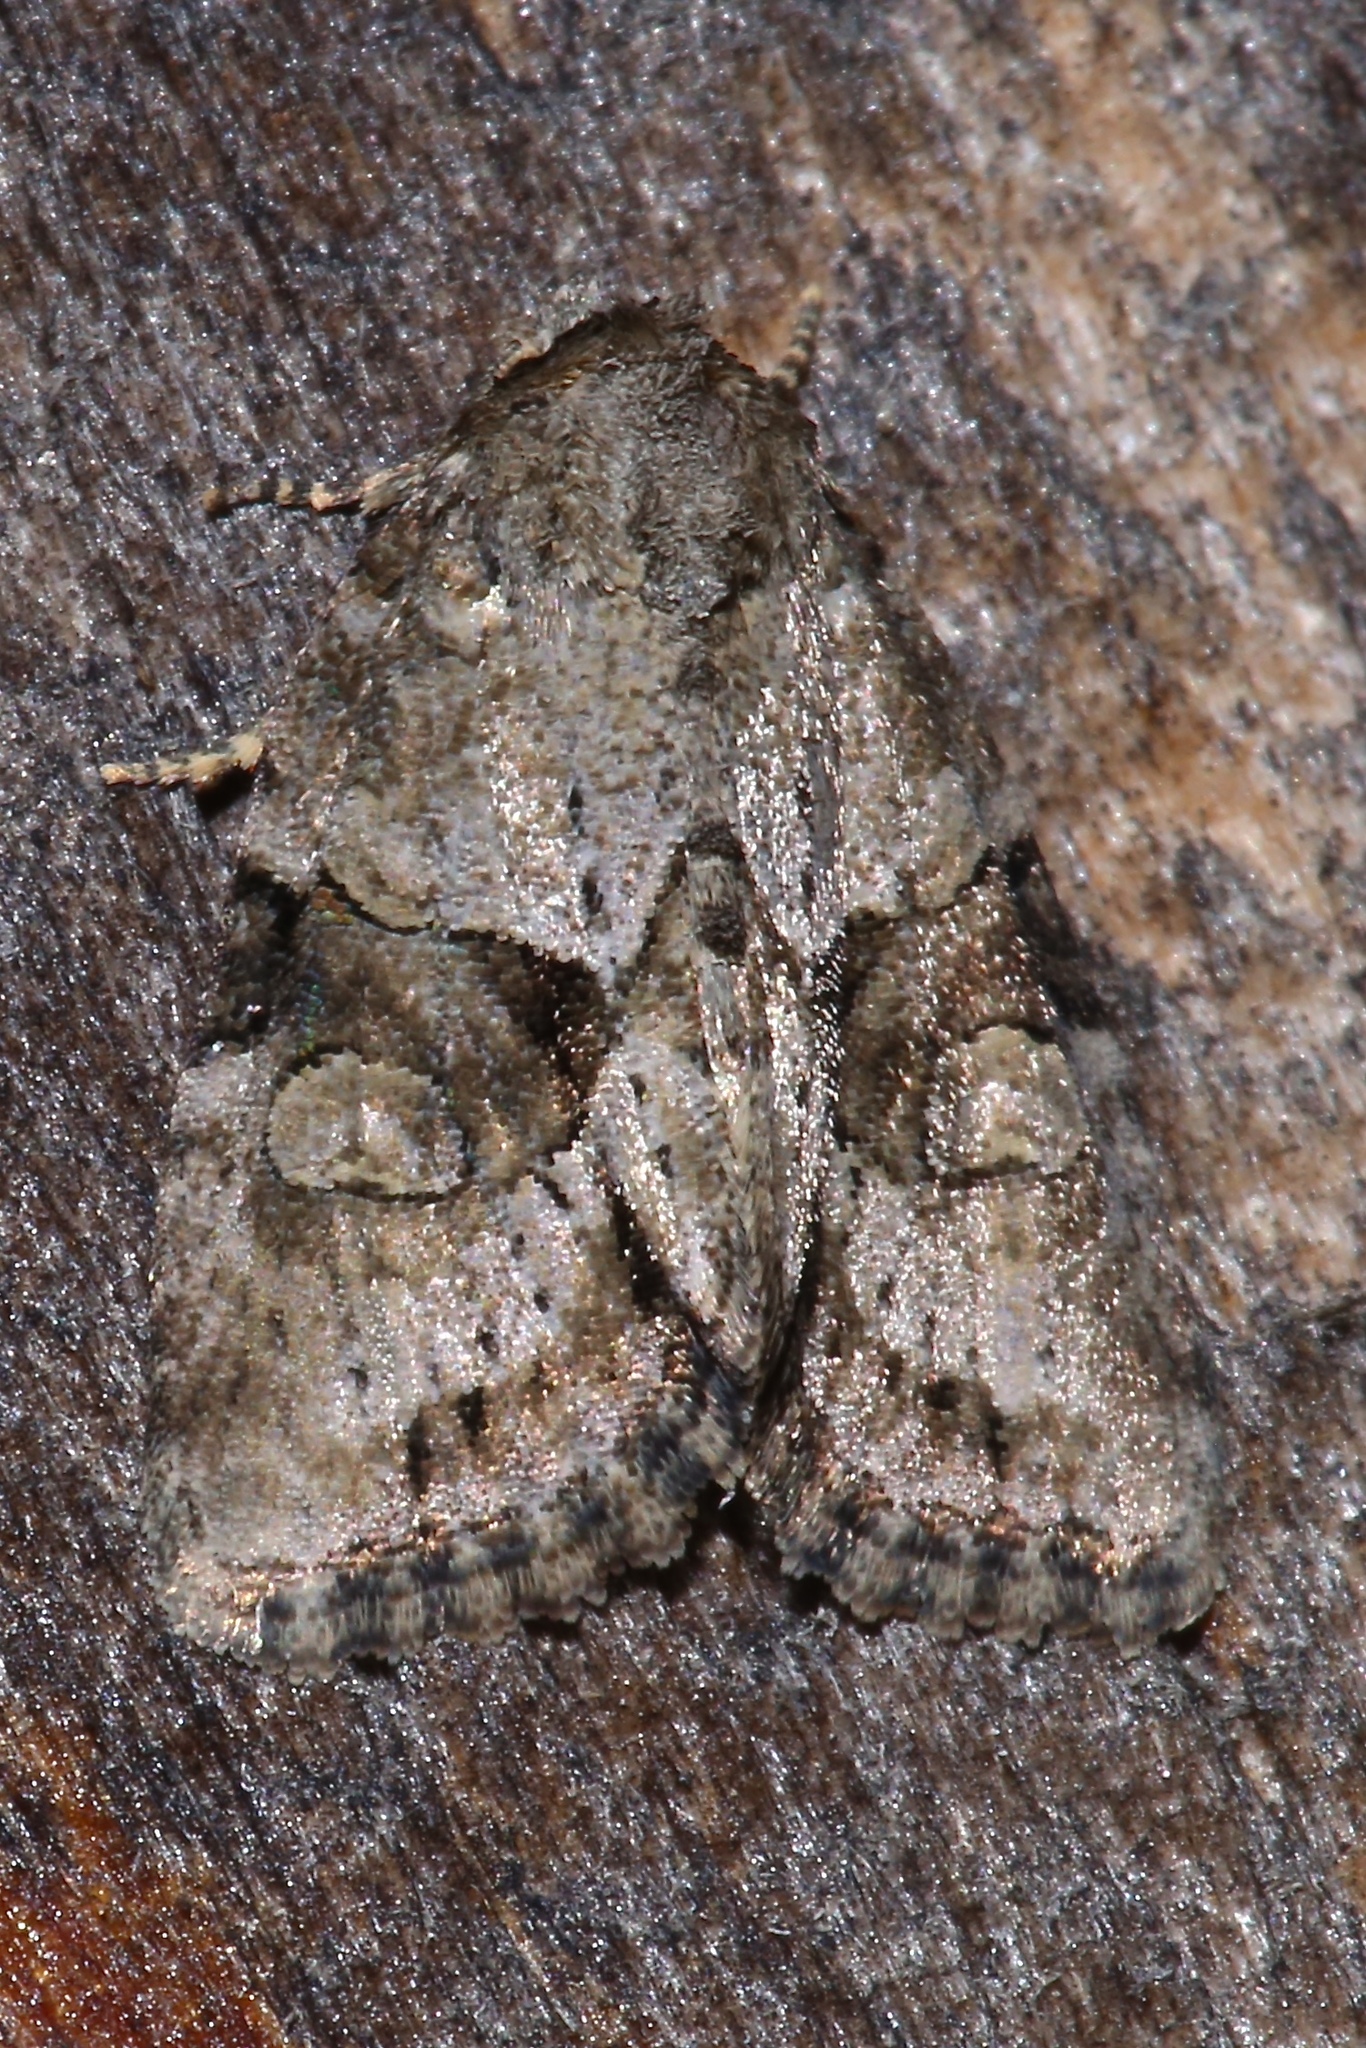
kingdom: Animalia
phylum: Arthropoda
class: Insecta
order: Lepidoptera
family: Noctuidae
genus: Neoligia
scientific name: Neoligia exhausta
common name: Exhausted brocade
